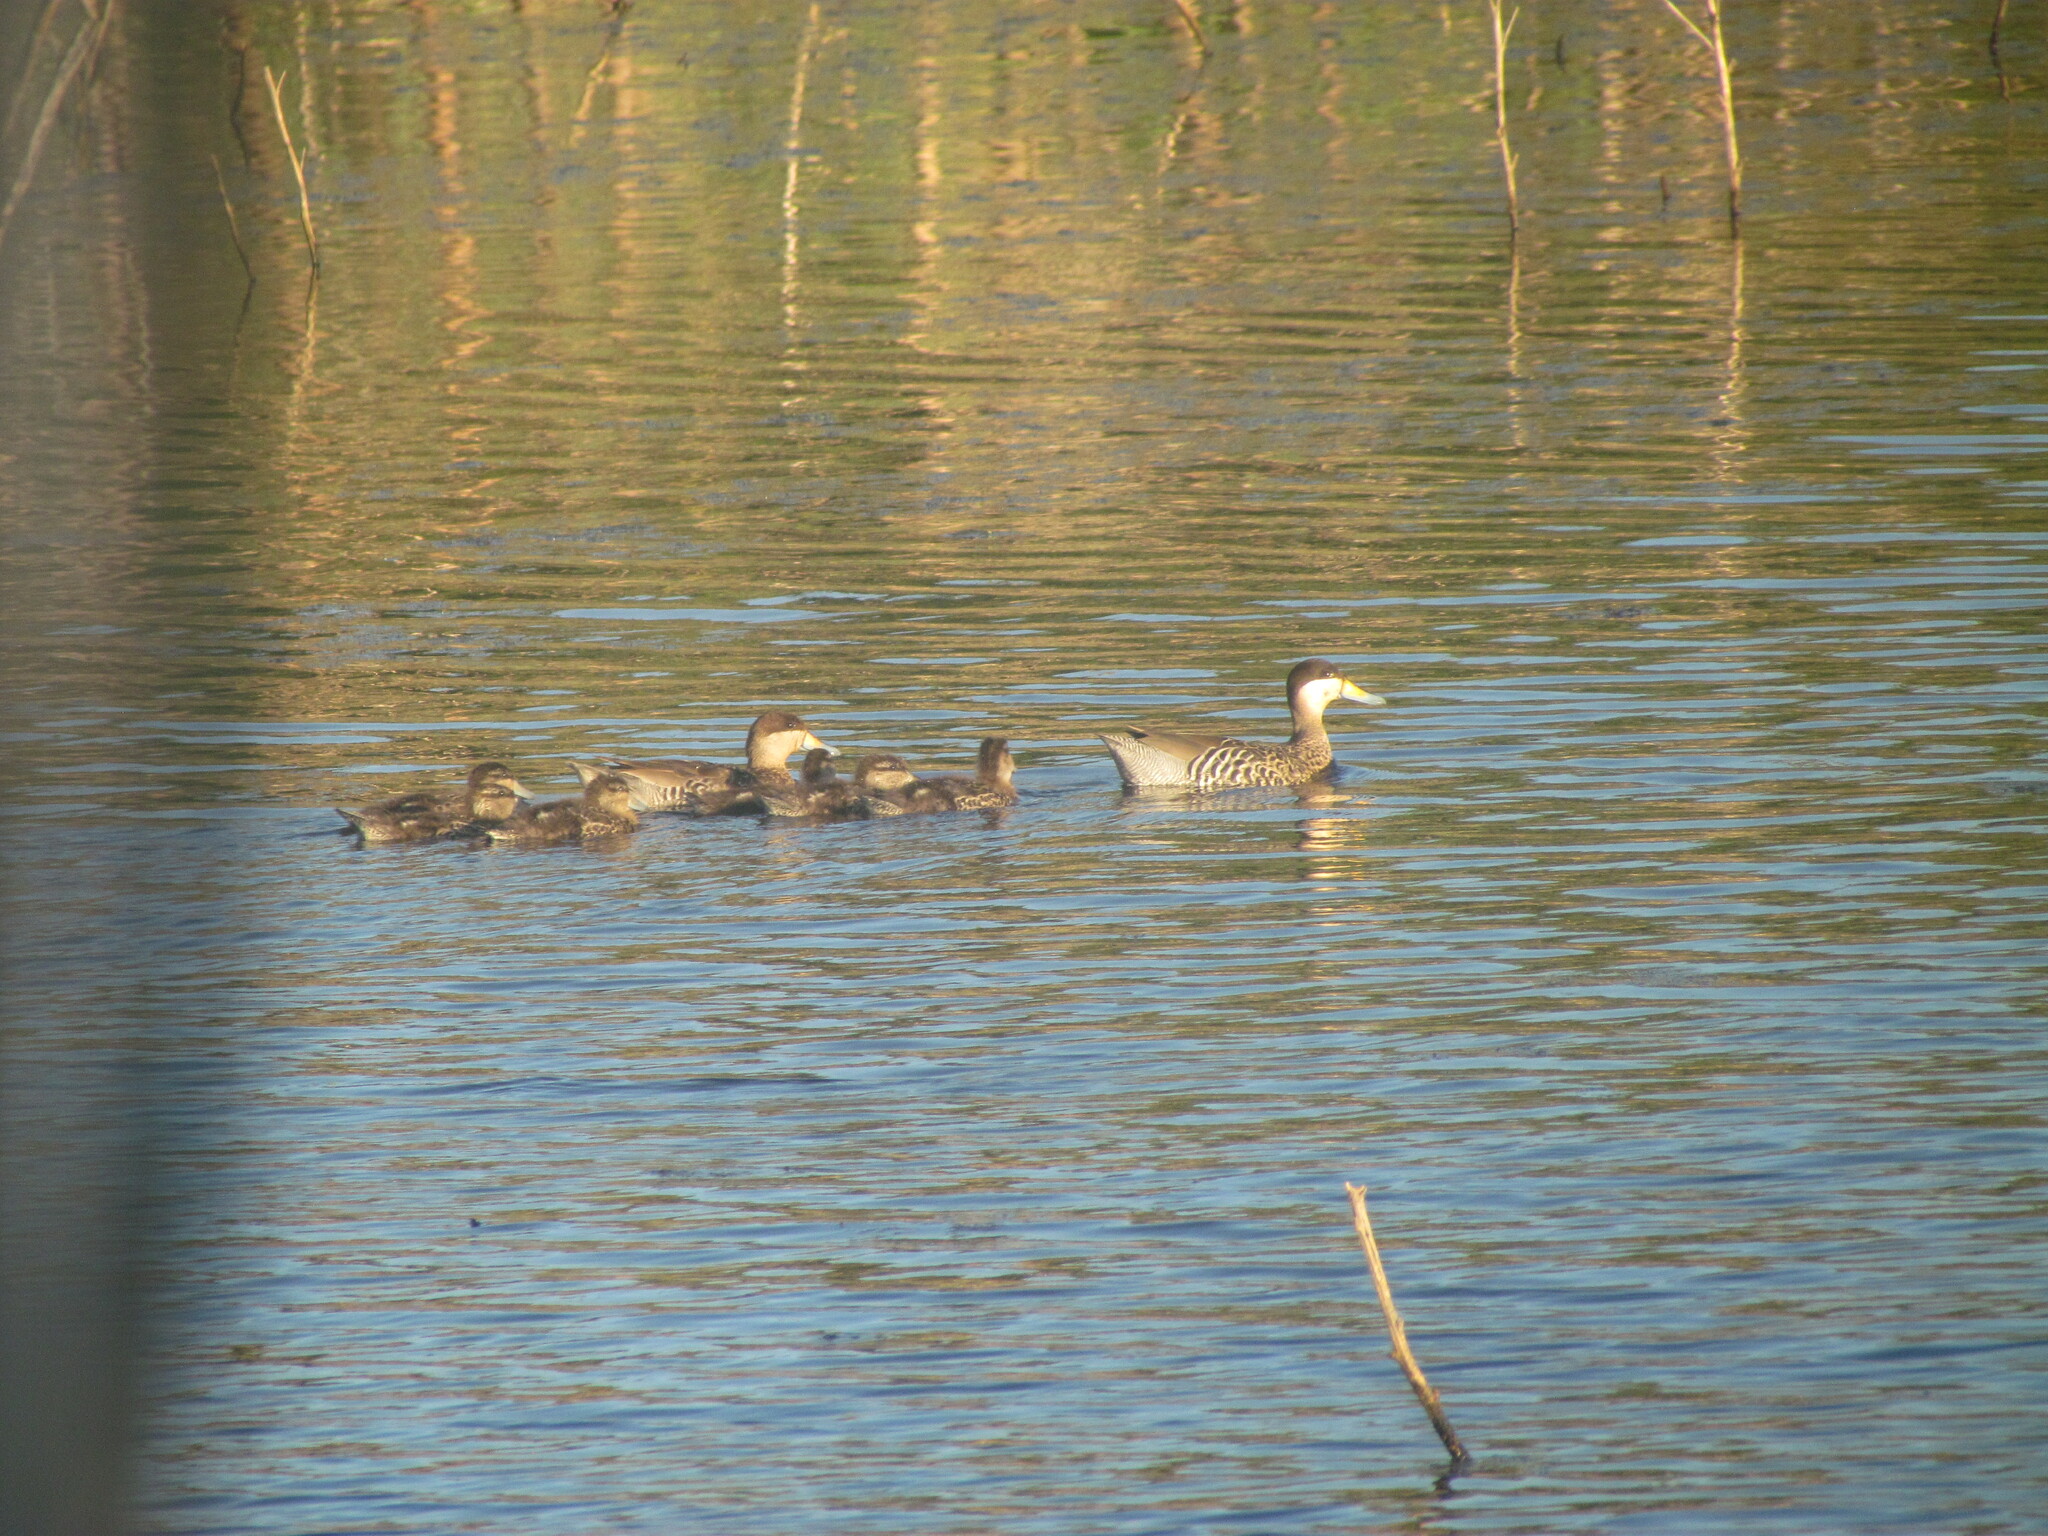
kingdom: Animalia
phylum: Chordata
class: Aves
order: Anseriformes
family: Anatidae
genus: Spatula
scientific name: Spatula versicolor
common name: Silver teal
